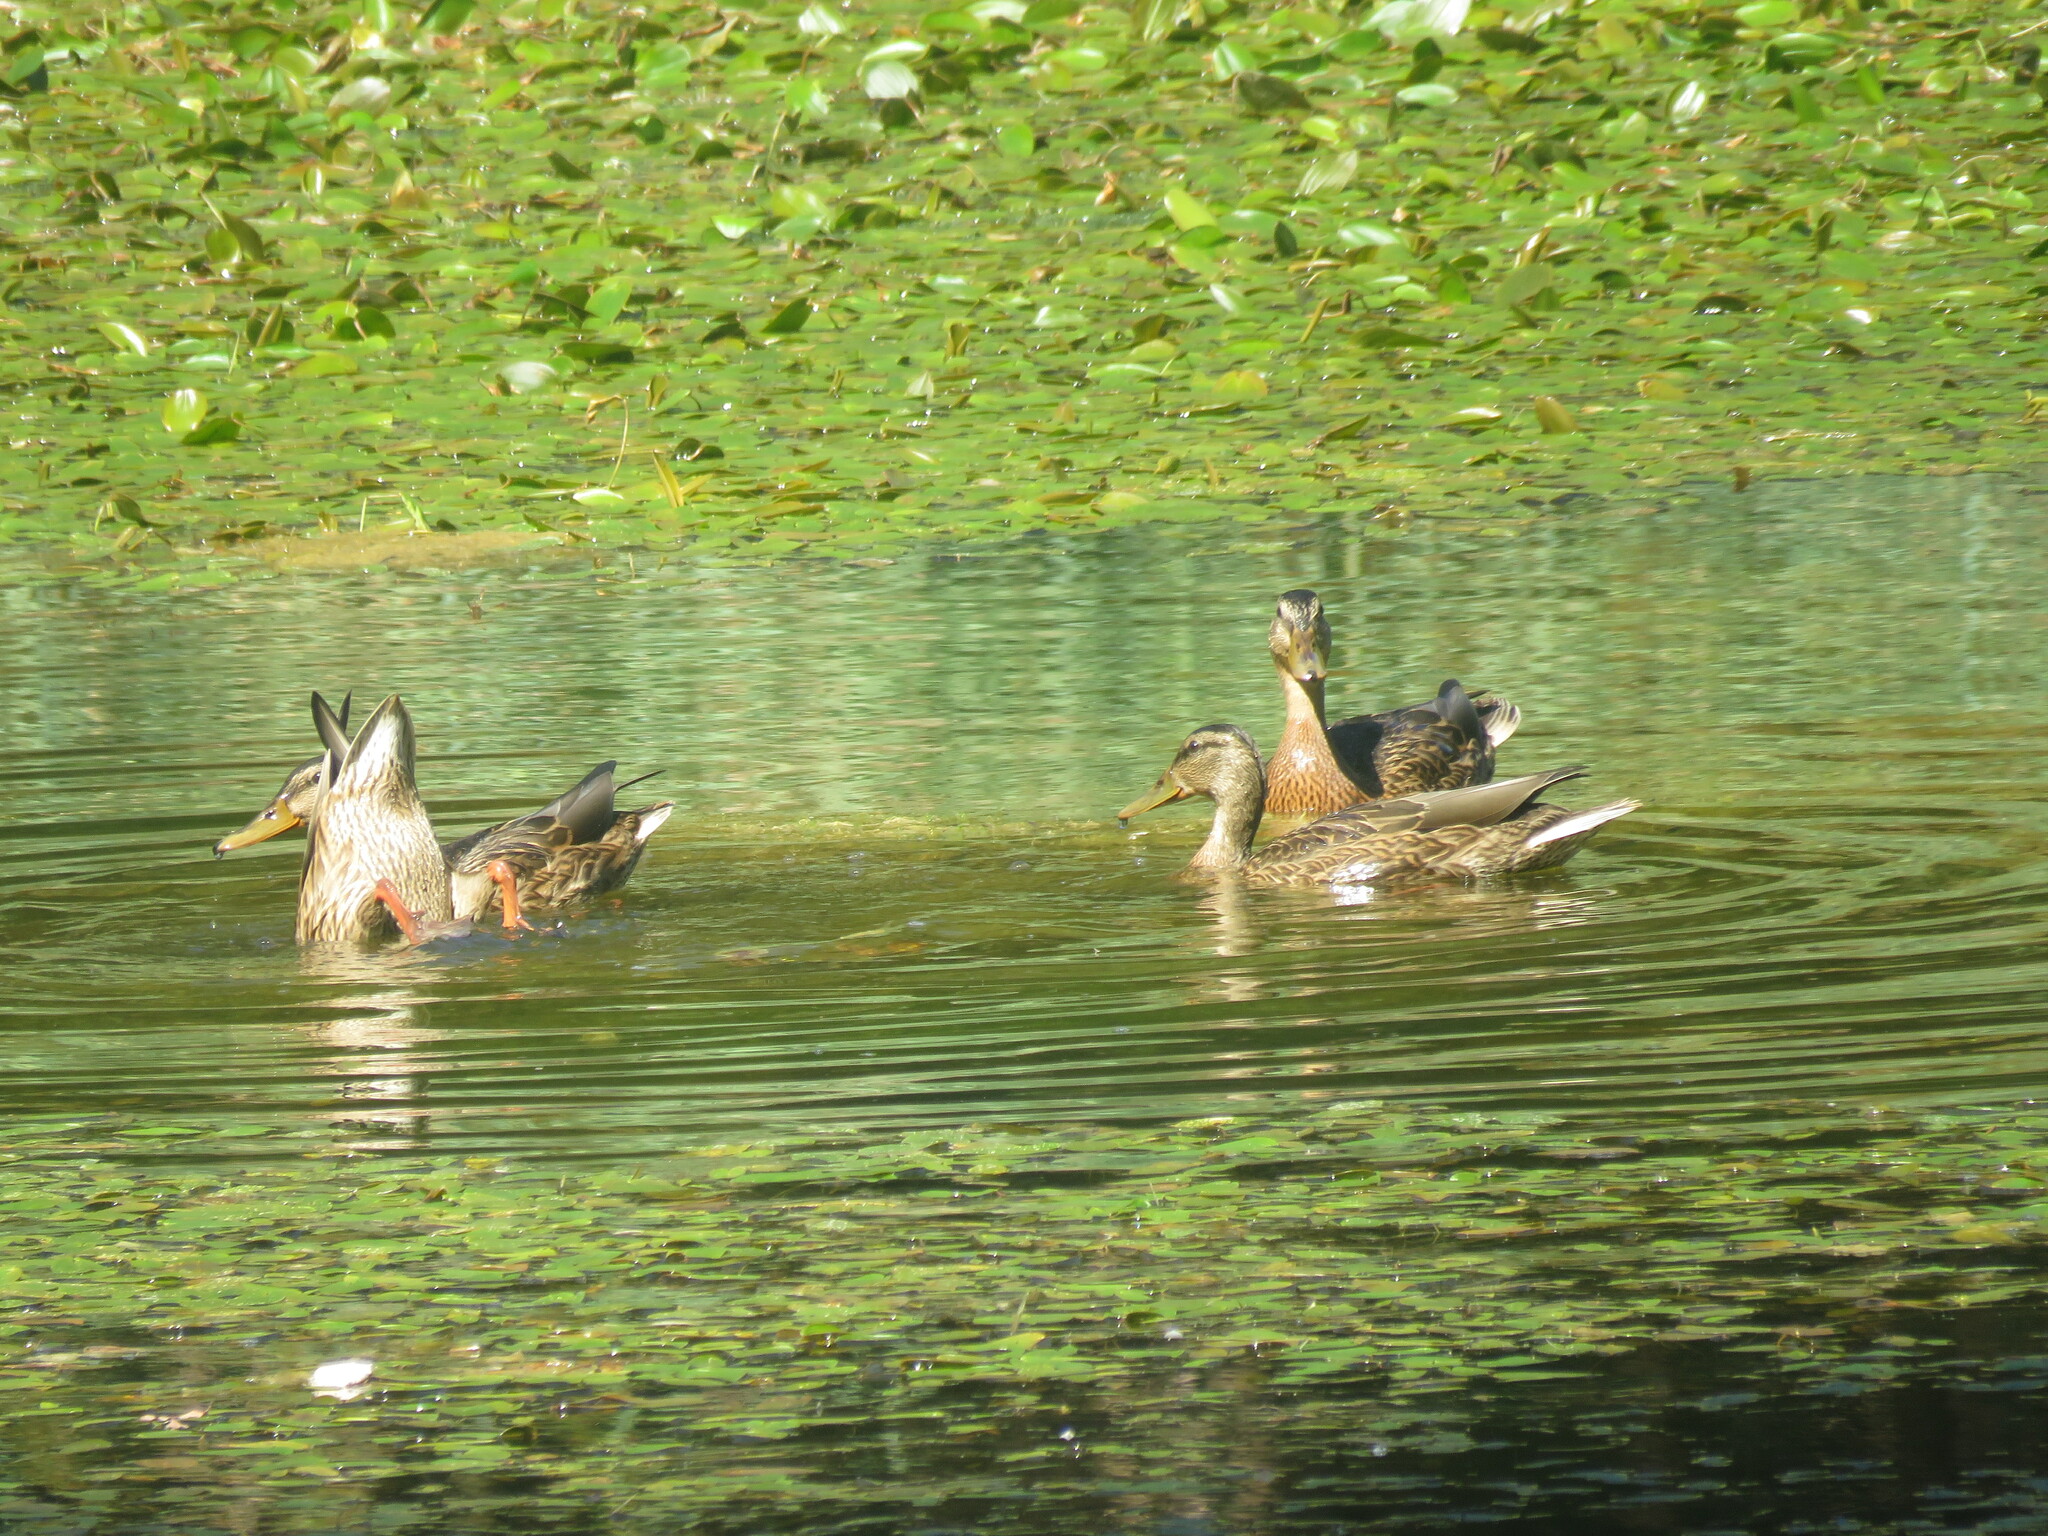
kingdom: Animalia
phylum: Chordata
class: Aves
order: Anseriformes
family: Anatidae
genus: Anas
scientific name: Anas platyrhynchos
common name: Mallard
